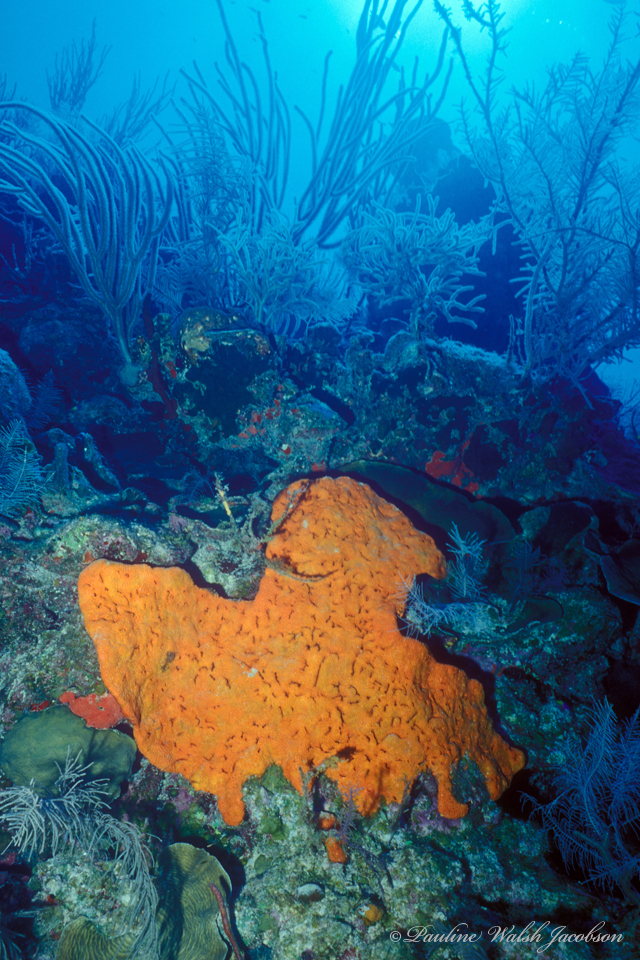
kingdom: Animalia
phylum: Porifera
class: Demospongiae
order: Agelasida
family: Agelasidae
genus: Agelas
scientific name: Agelas clathrodes
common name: Orange elephant ear sponge
